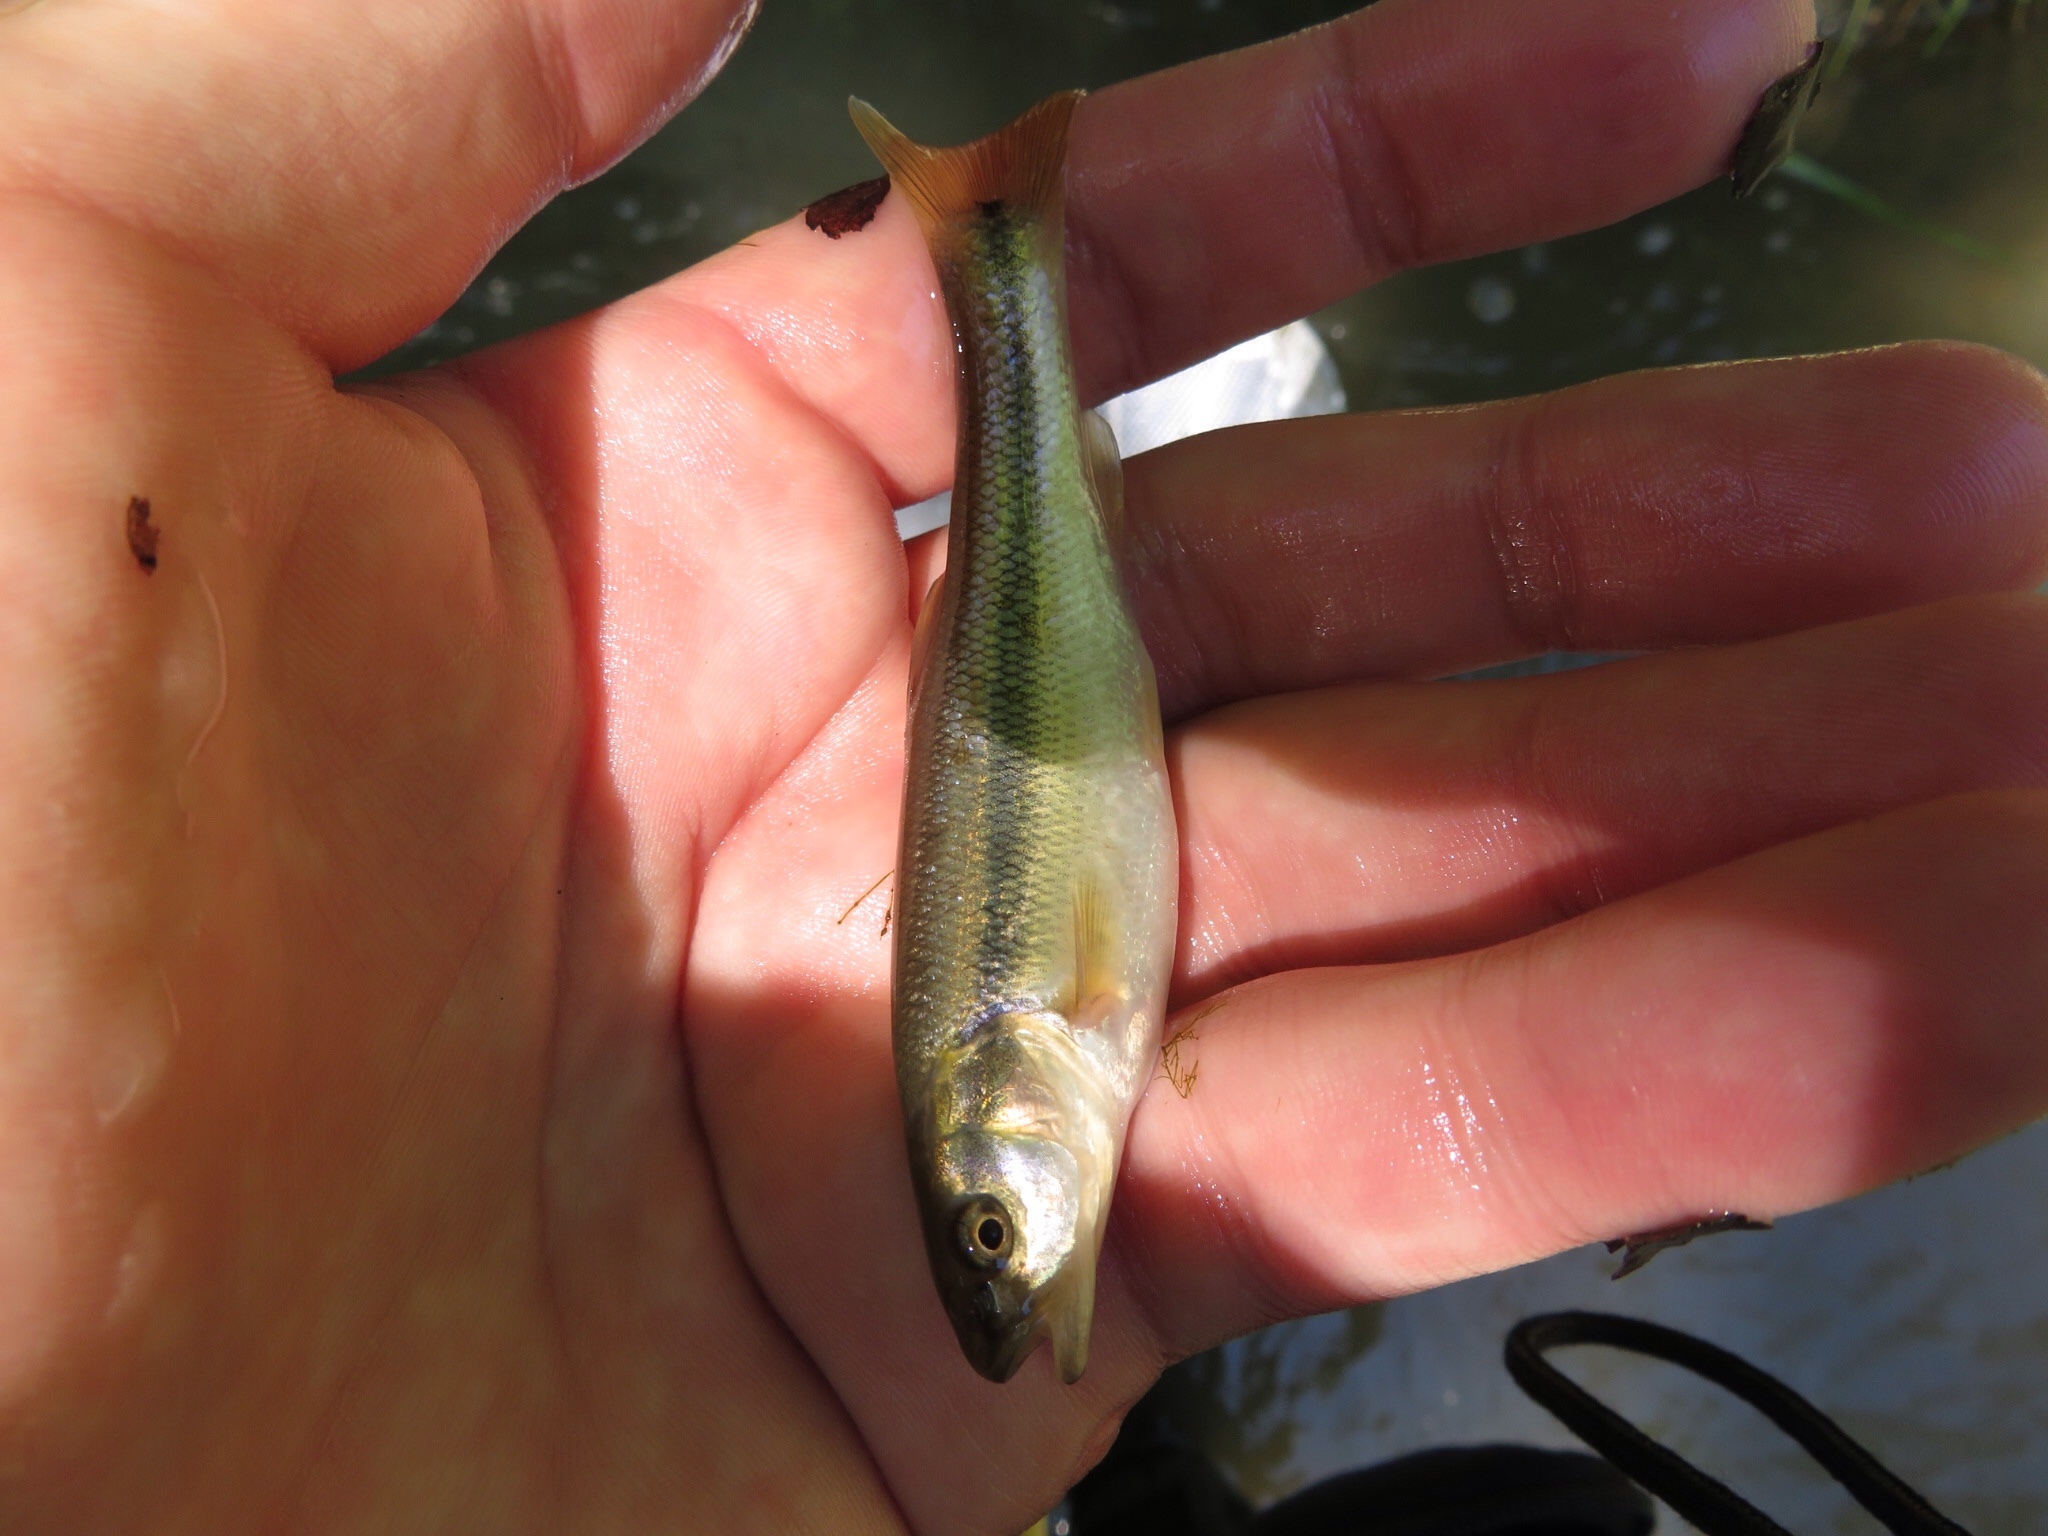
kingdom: Animalia
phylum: Chordata
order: Cypriniformes
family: Cyprinidae
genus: Semotilus
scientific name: Semotilus atromaculatus
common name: Creek chub
